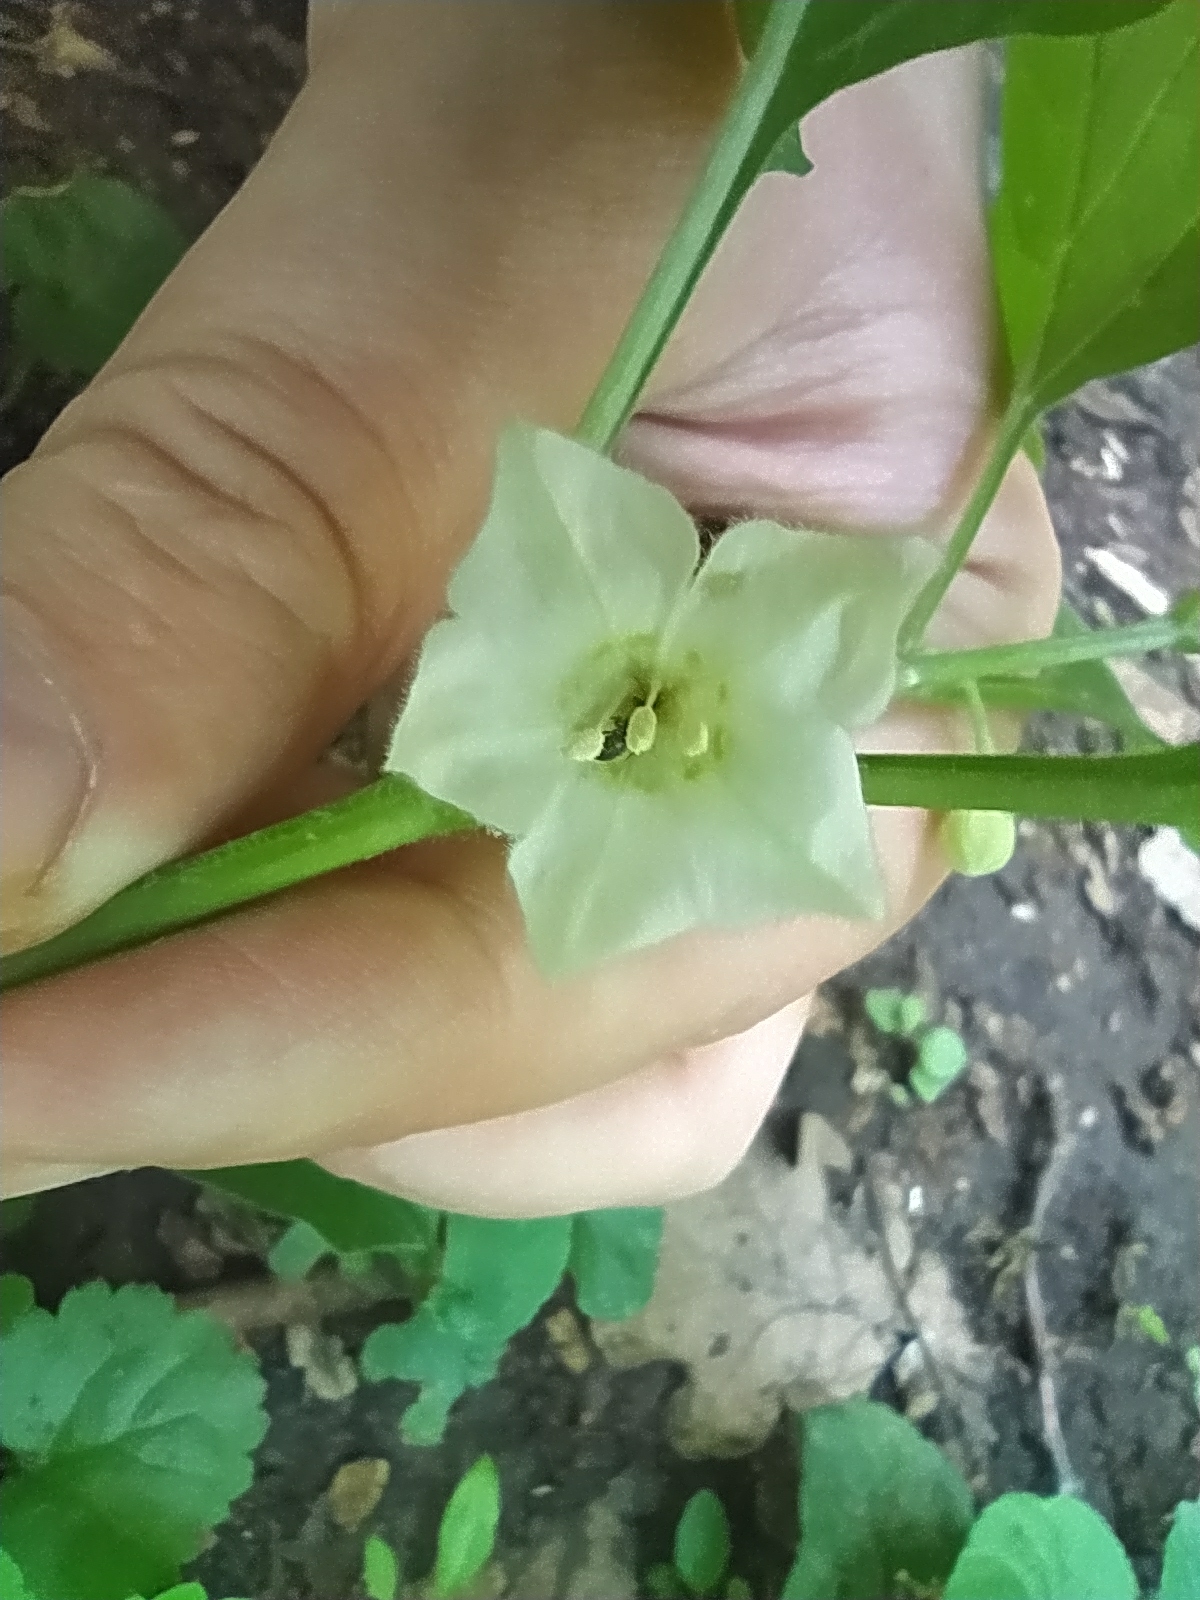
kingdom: Plantae
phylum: Tracheophyta
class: Magnoliopsida
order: Solanales
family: Solanaceae
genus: Alkekengi
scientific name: Alkekengi officinarum
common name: Japanese-lantern
